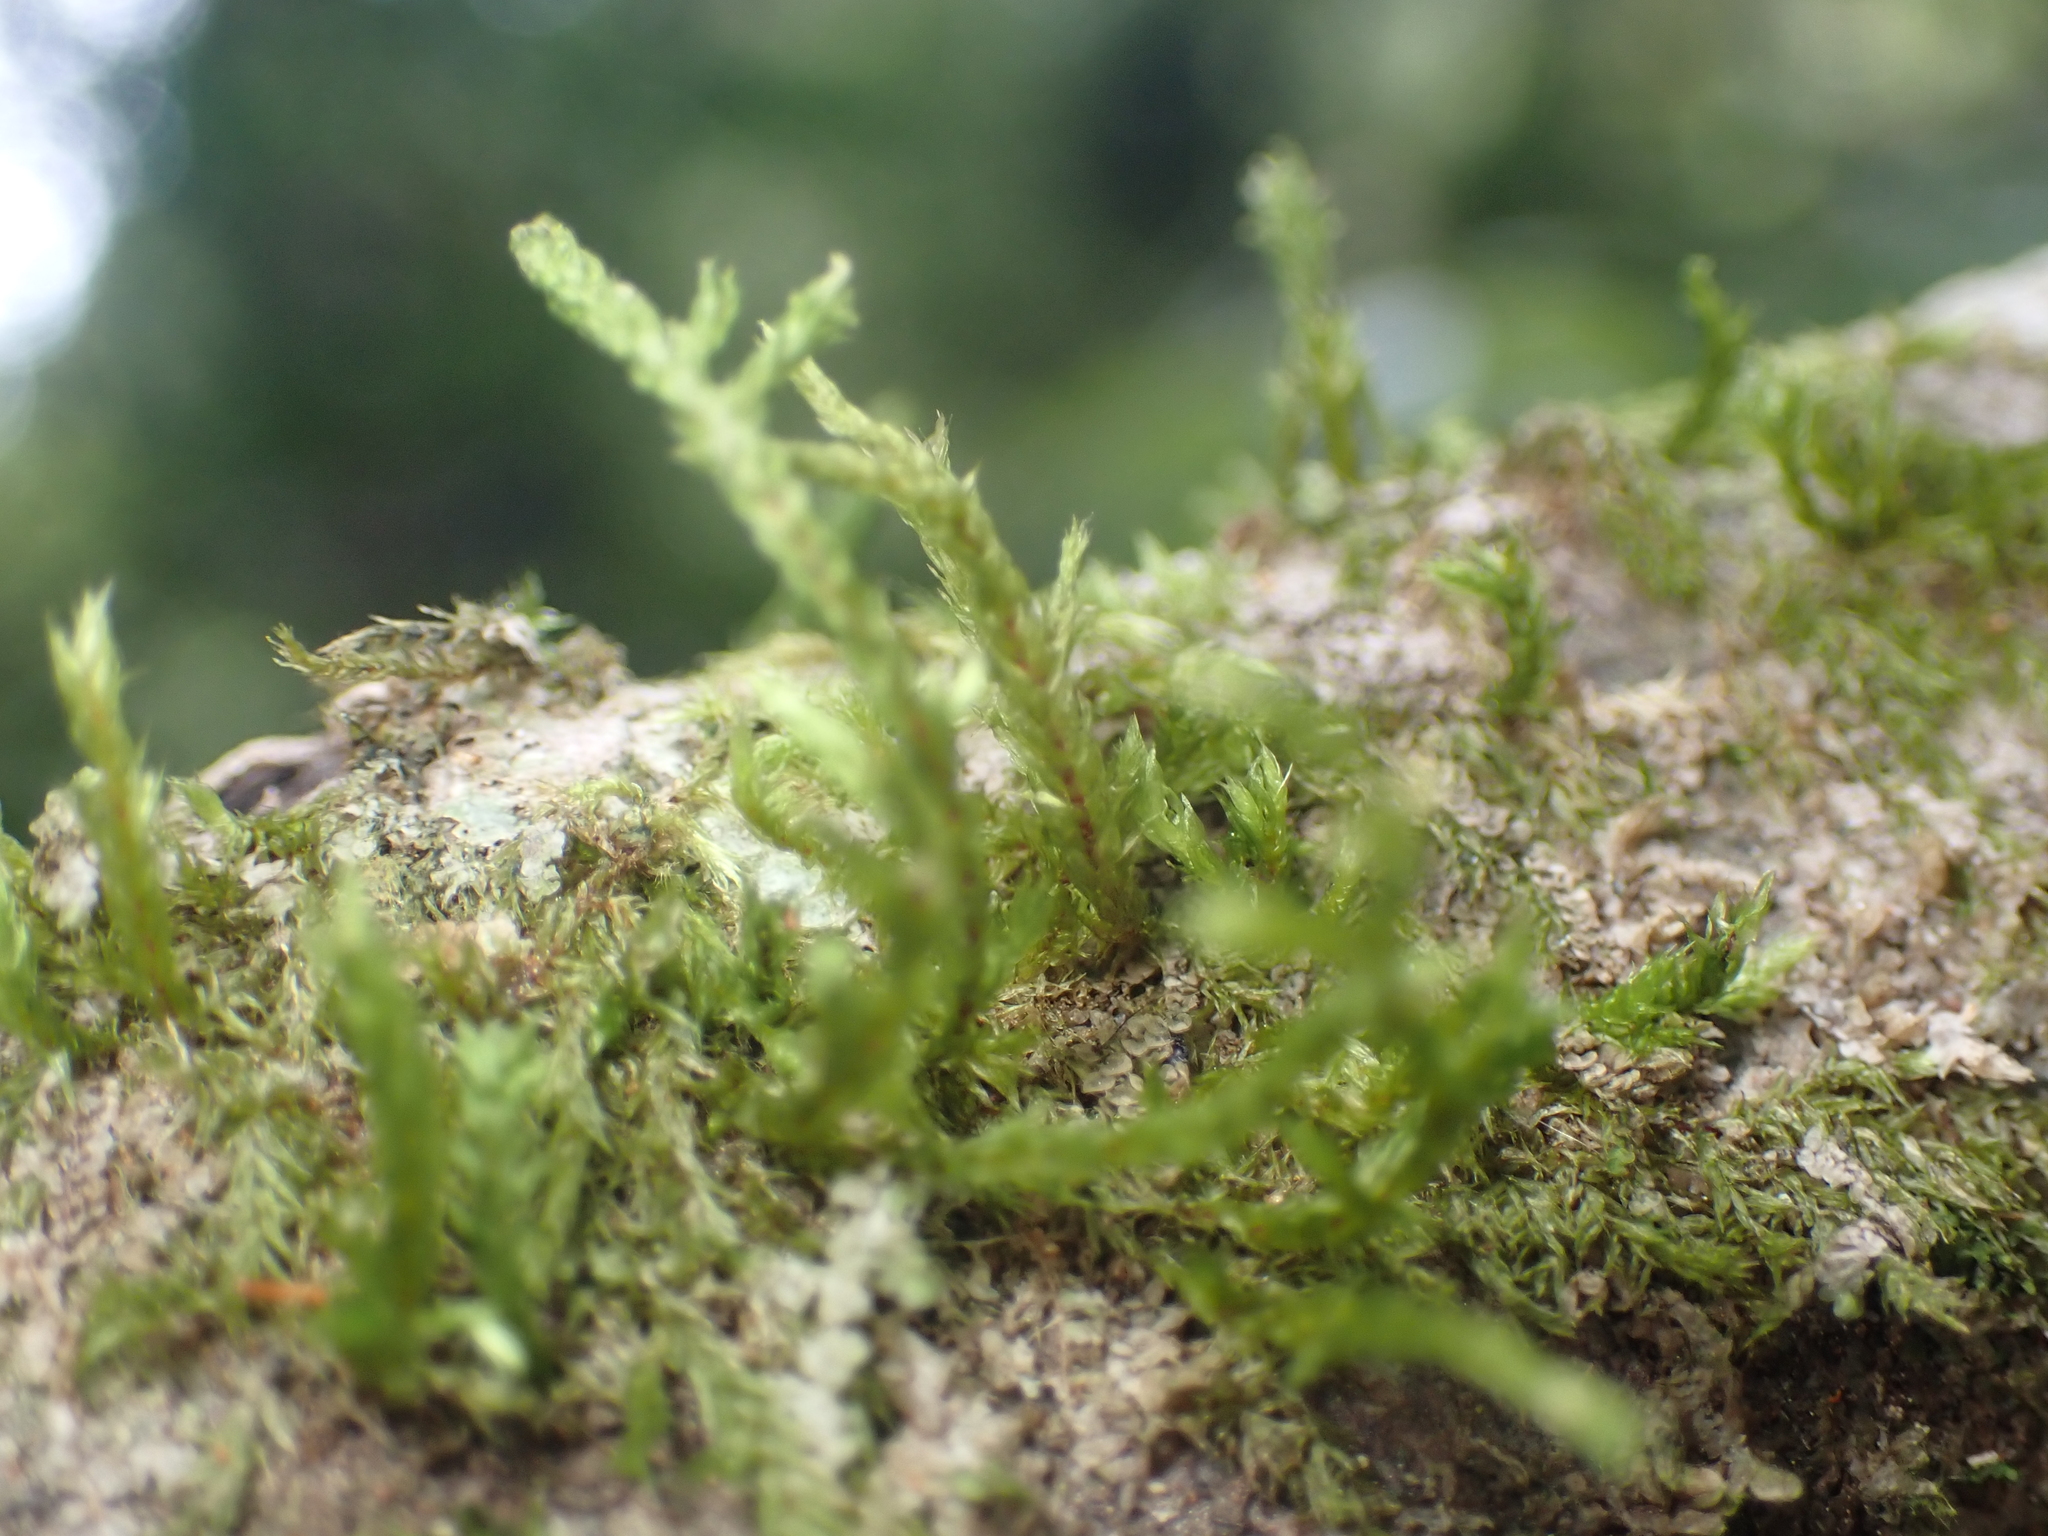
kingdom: Plantae
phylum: Bryophyta
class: Bryopsida
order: Ptychomniales
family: Ptychomniaceae
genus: Glyphothecium
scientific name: Glyphothecium sciuroides
